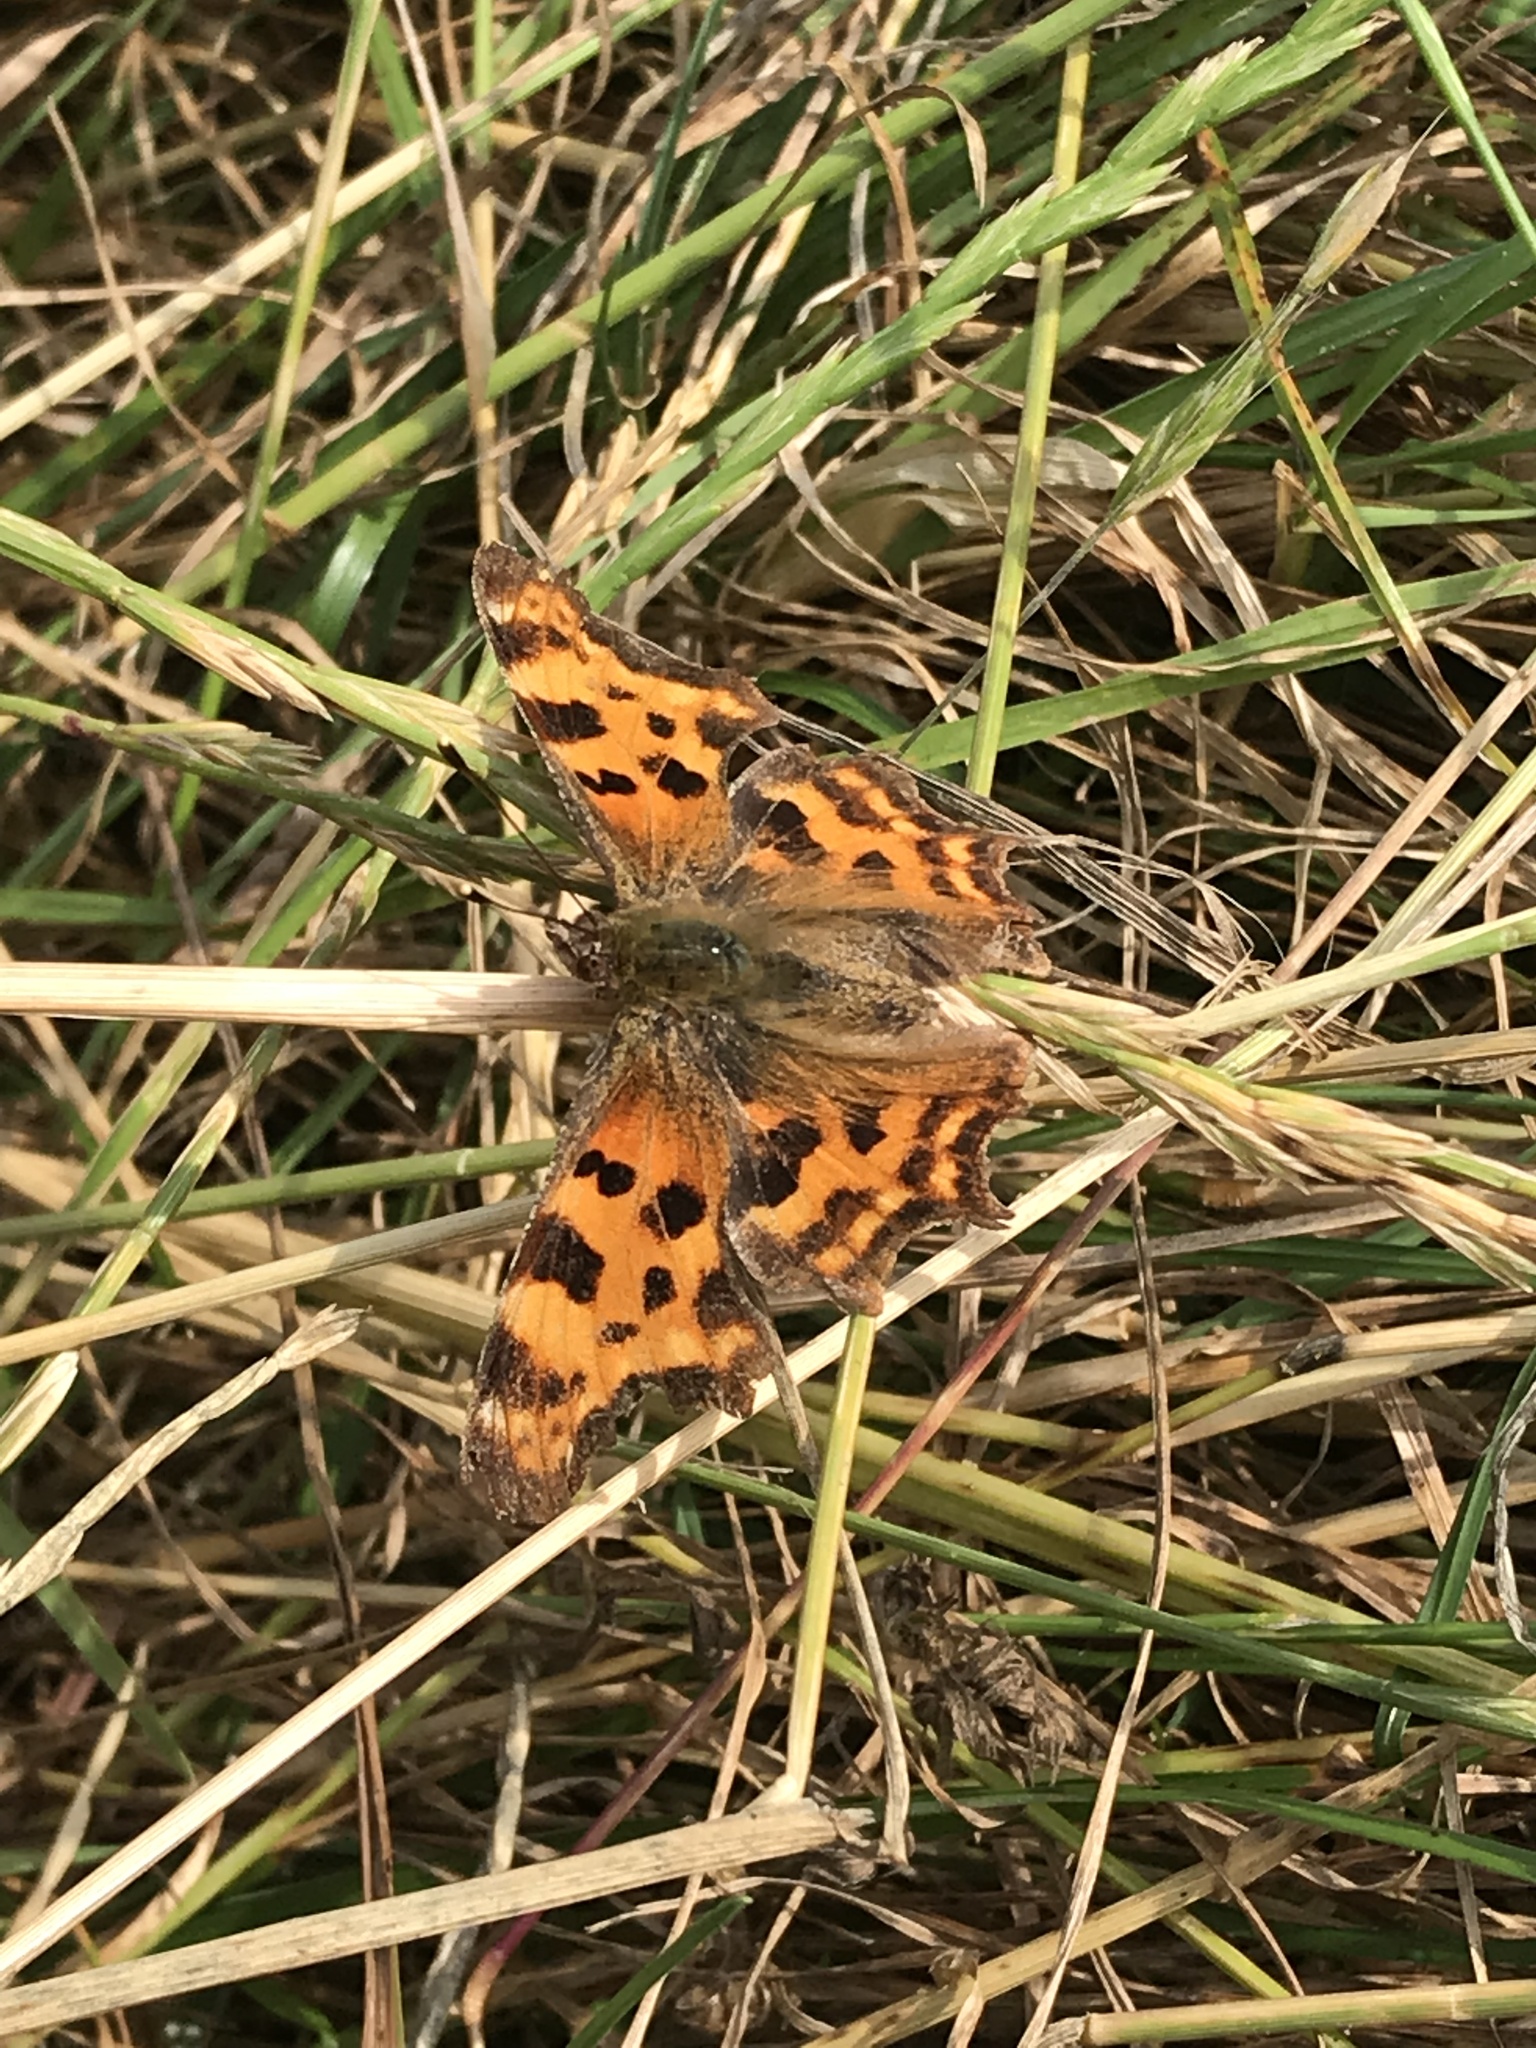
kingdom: Animalia
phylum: Arthropoda
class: Insecta
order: Lepidoptera
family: Nymphalidae
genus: Polygonia
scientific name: Polygonia c-album
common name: Comma
